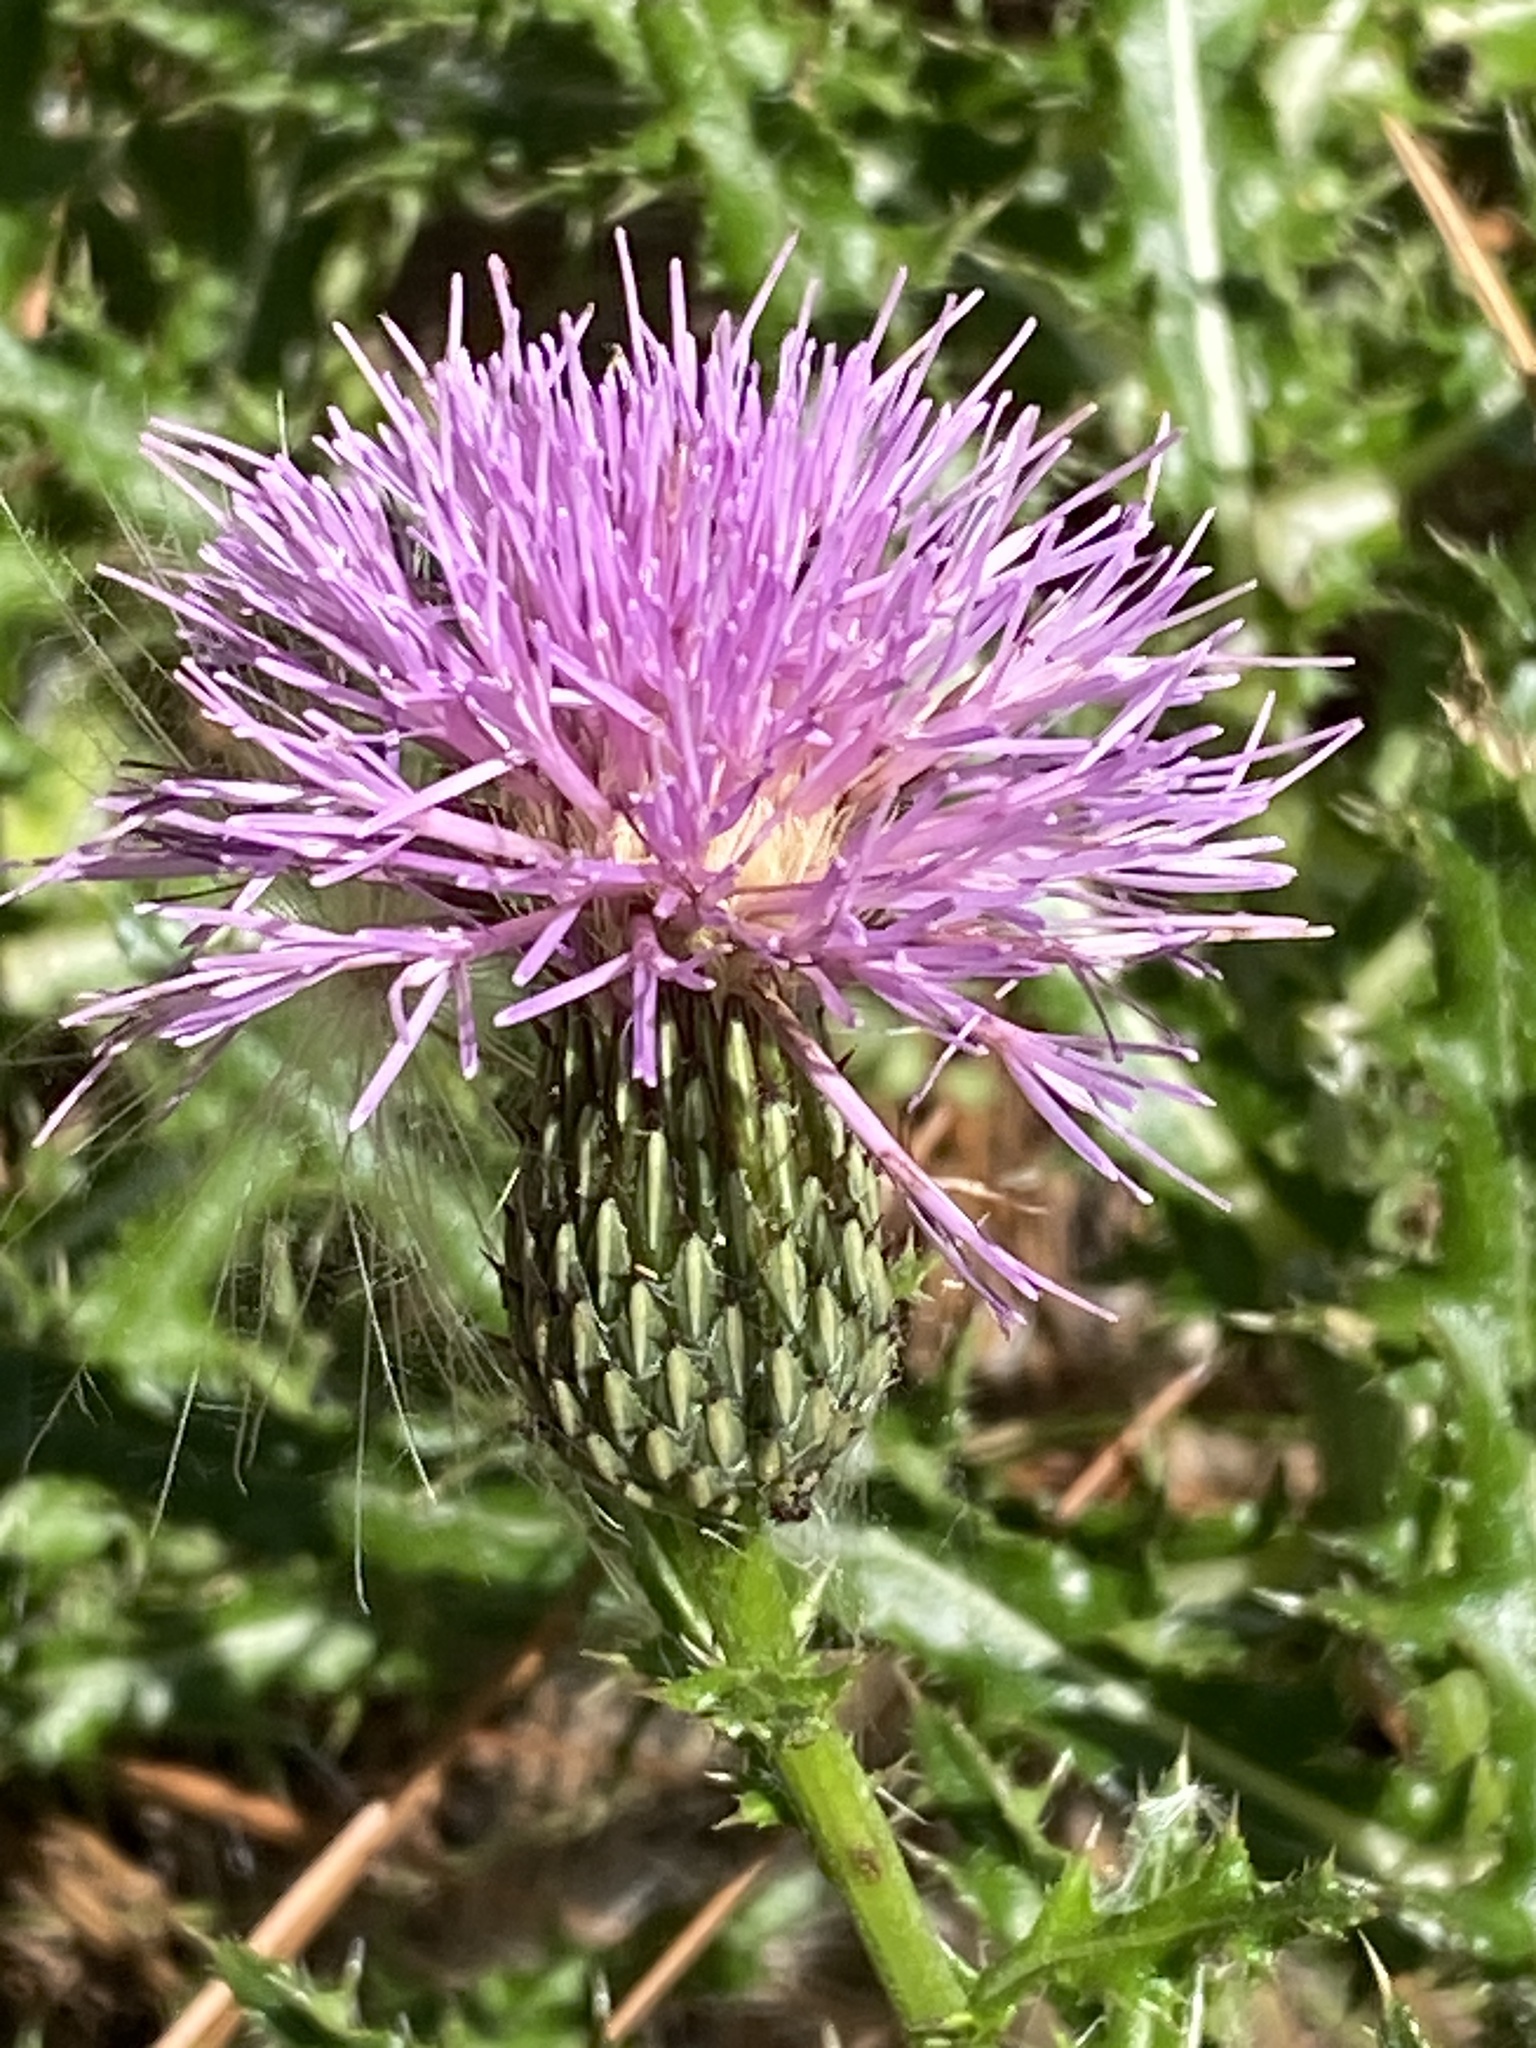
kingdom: Plantae
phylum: Tracheophyta
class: Magnoliopsida
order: Asterales
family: Asteraceae
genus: Cirsium
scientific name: Cirsium repandum
